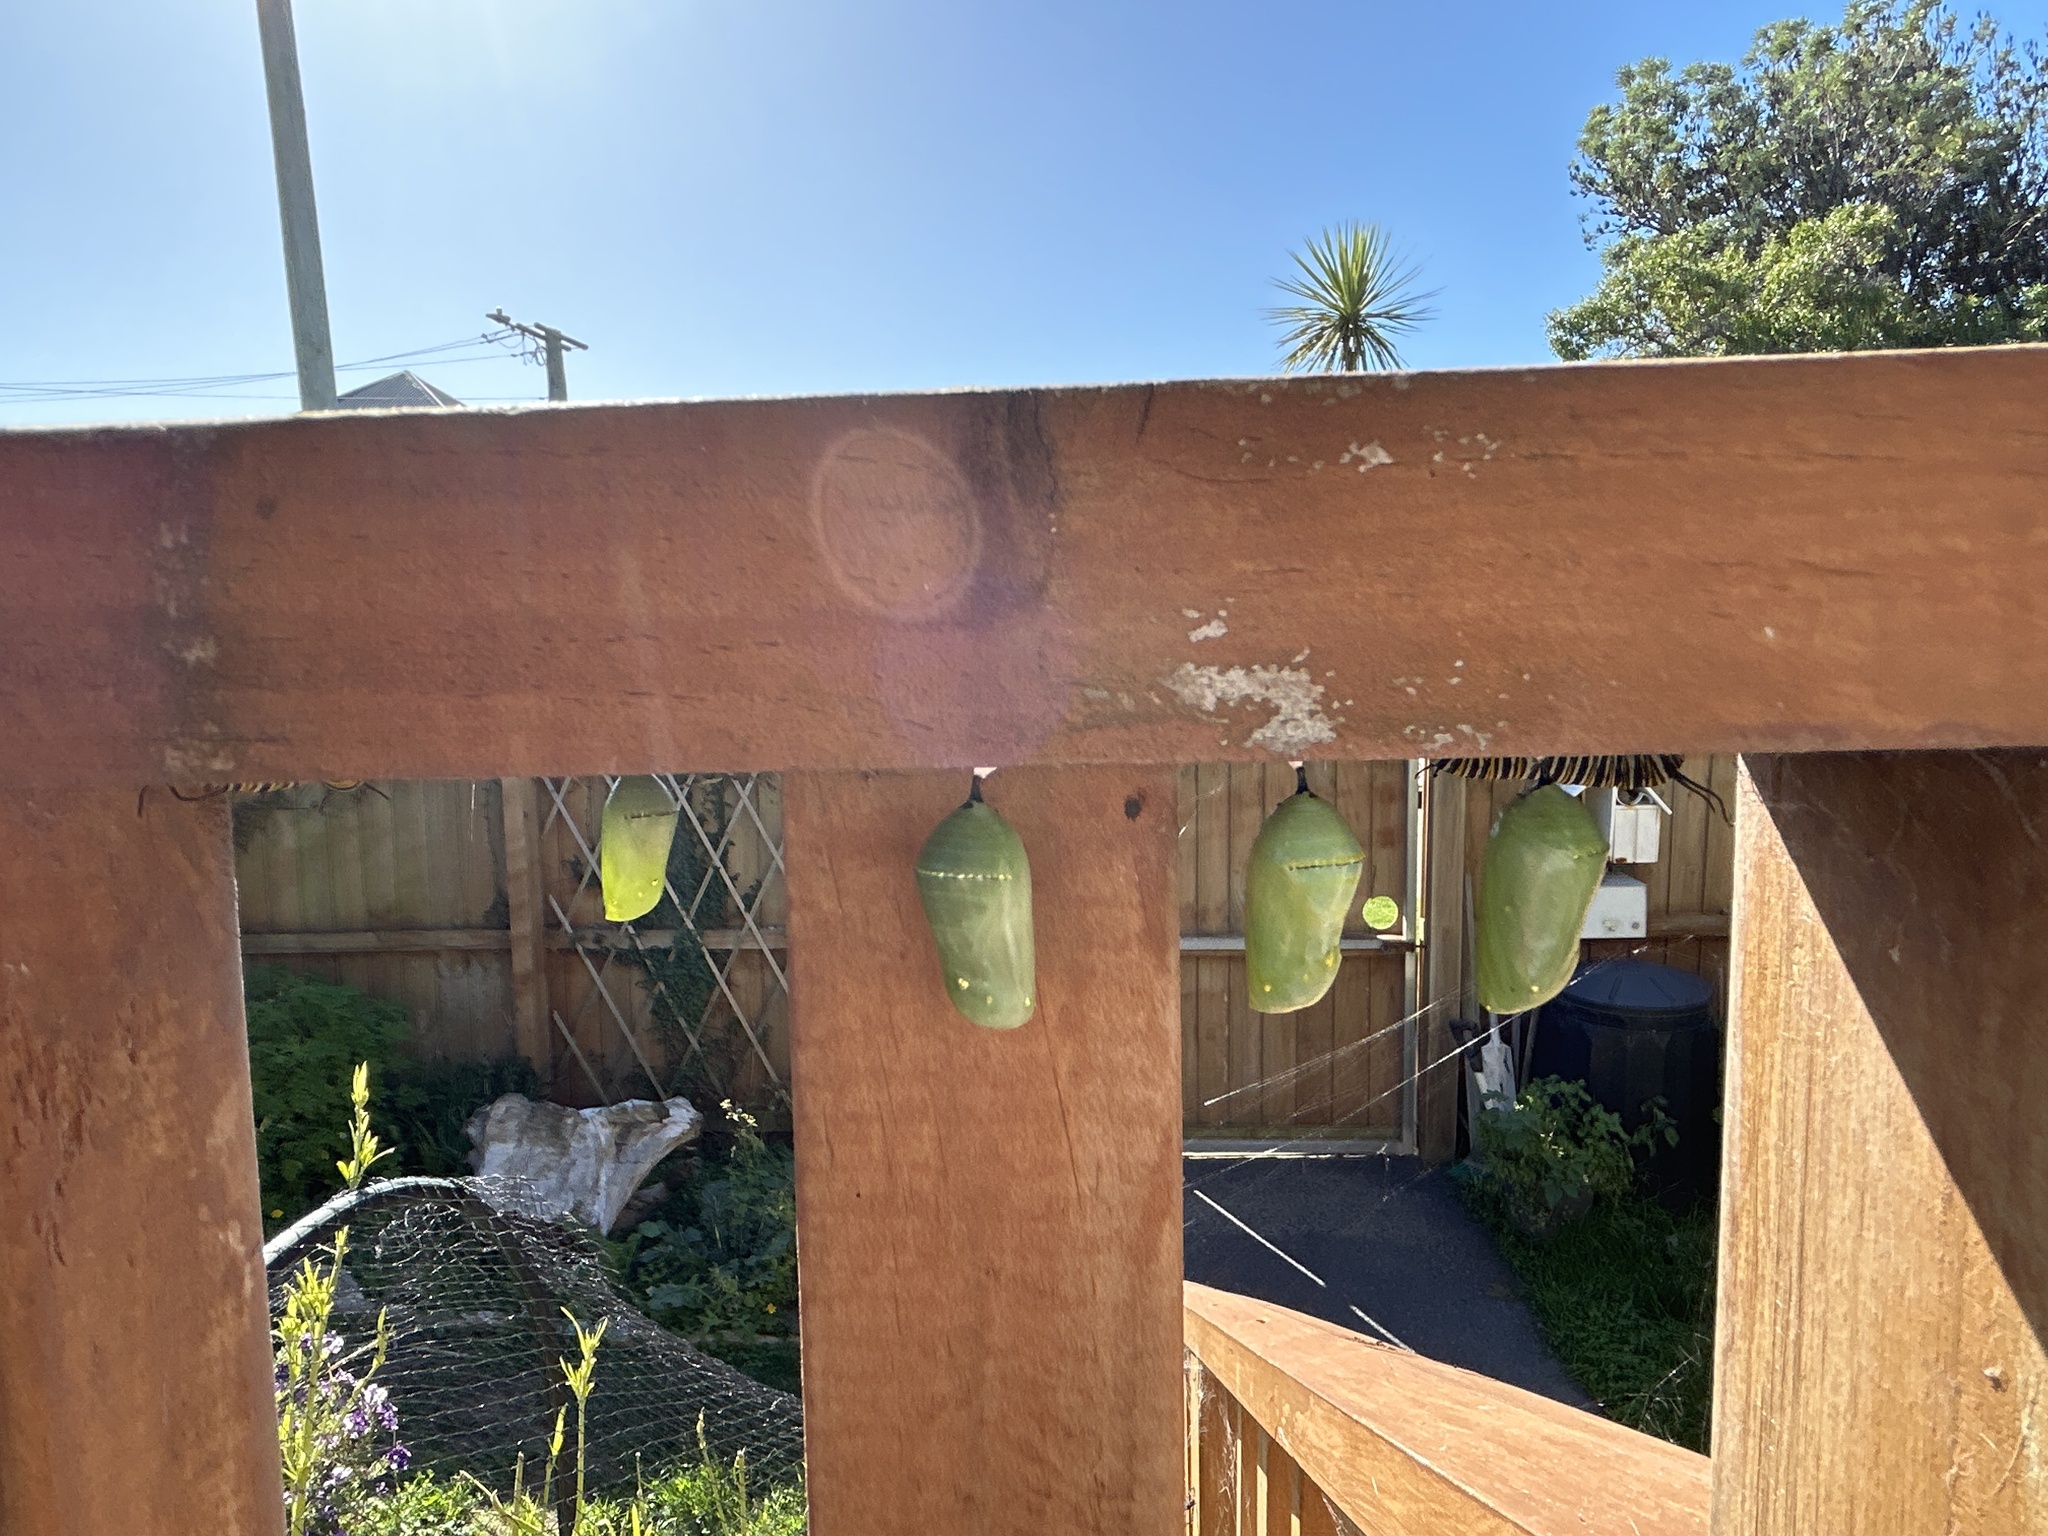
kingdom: Animalia
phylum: Arthropoda
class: Insecta
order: Lepidoptera
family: Nymphalidae
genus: Danaus
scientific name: Danaus plexippus
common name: Monarch
